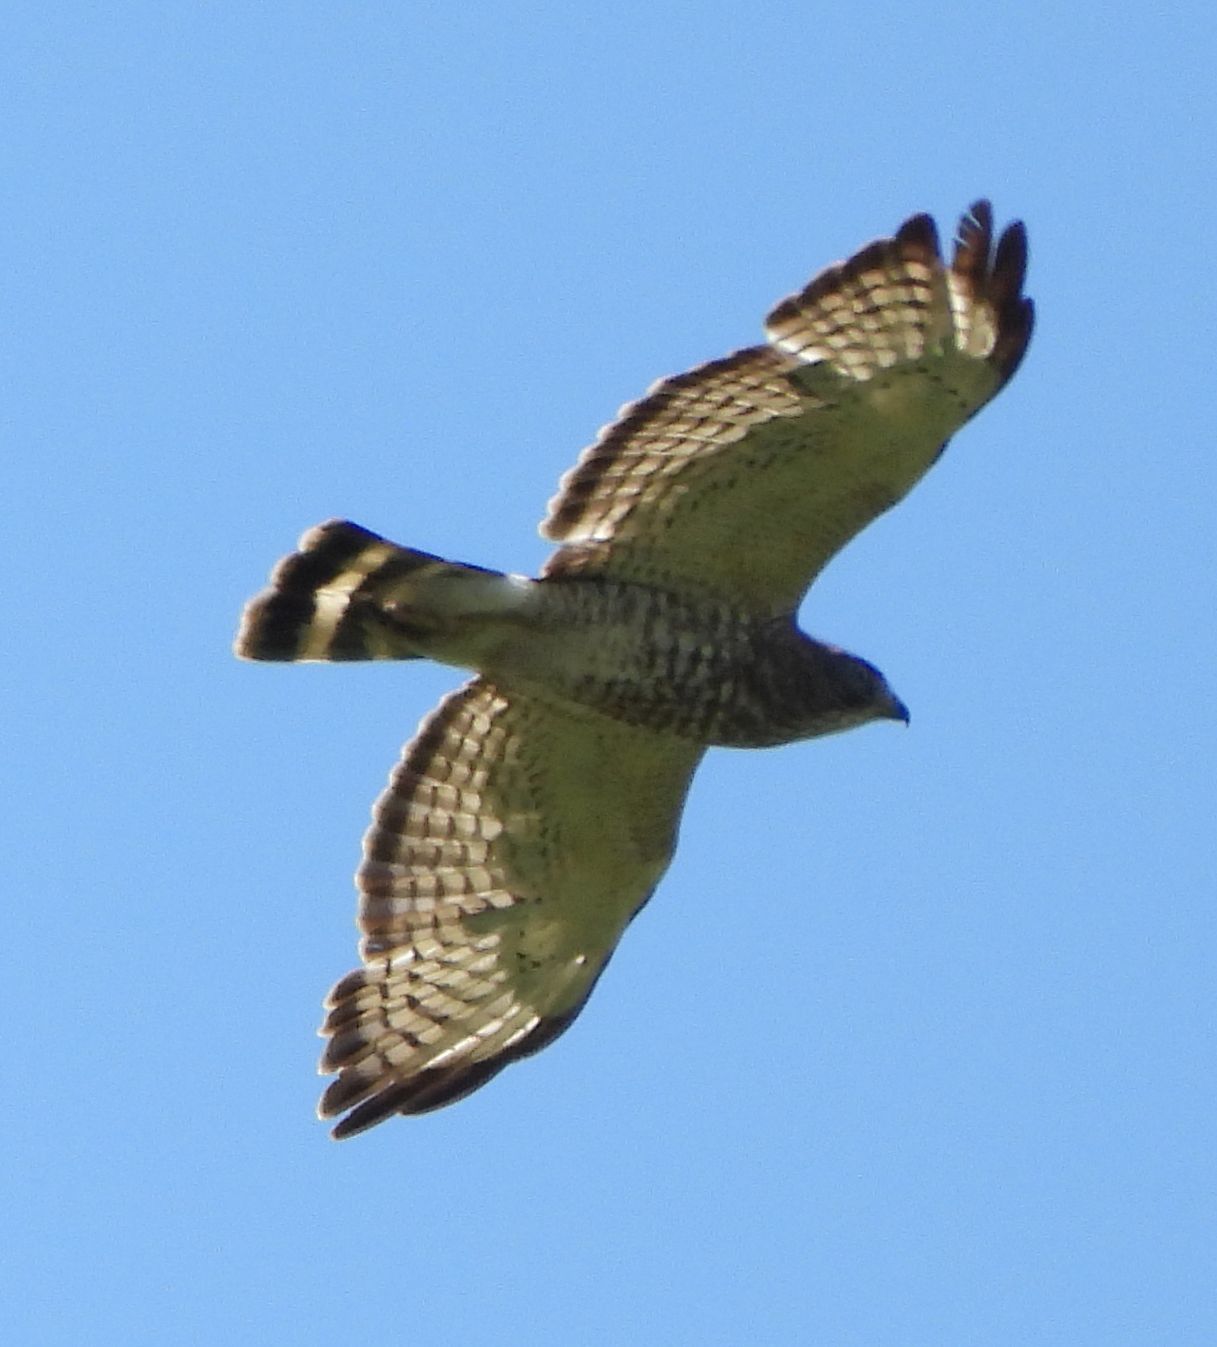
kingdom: Animalia
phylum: Chordata
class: Aves
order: Accipitriformes
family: Accipitridae
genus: Buteo
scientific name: Buteo platypterus
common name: Broad-winged hawk
